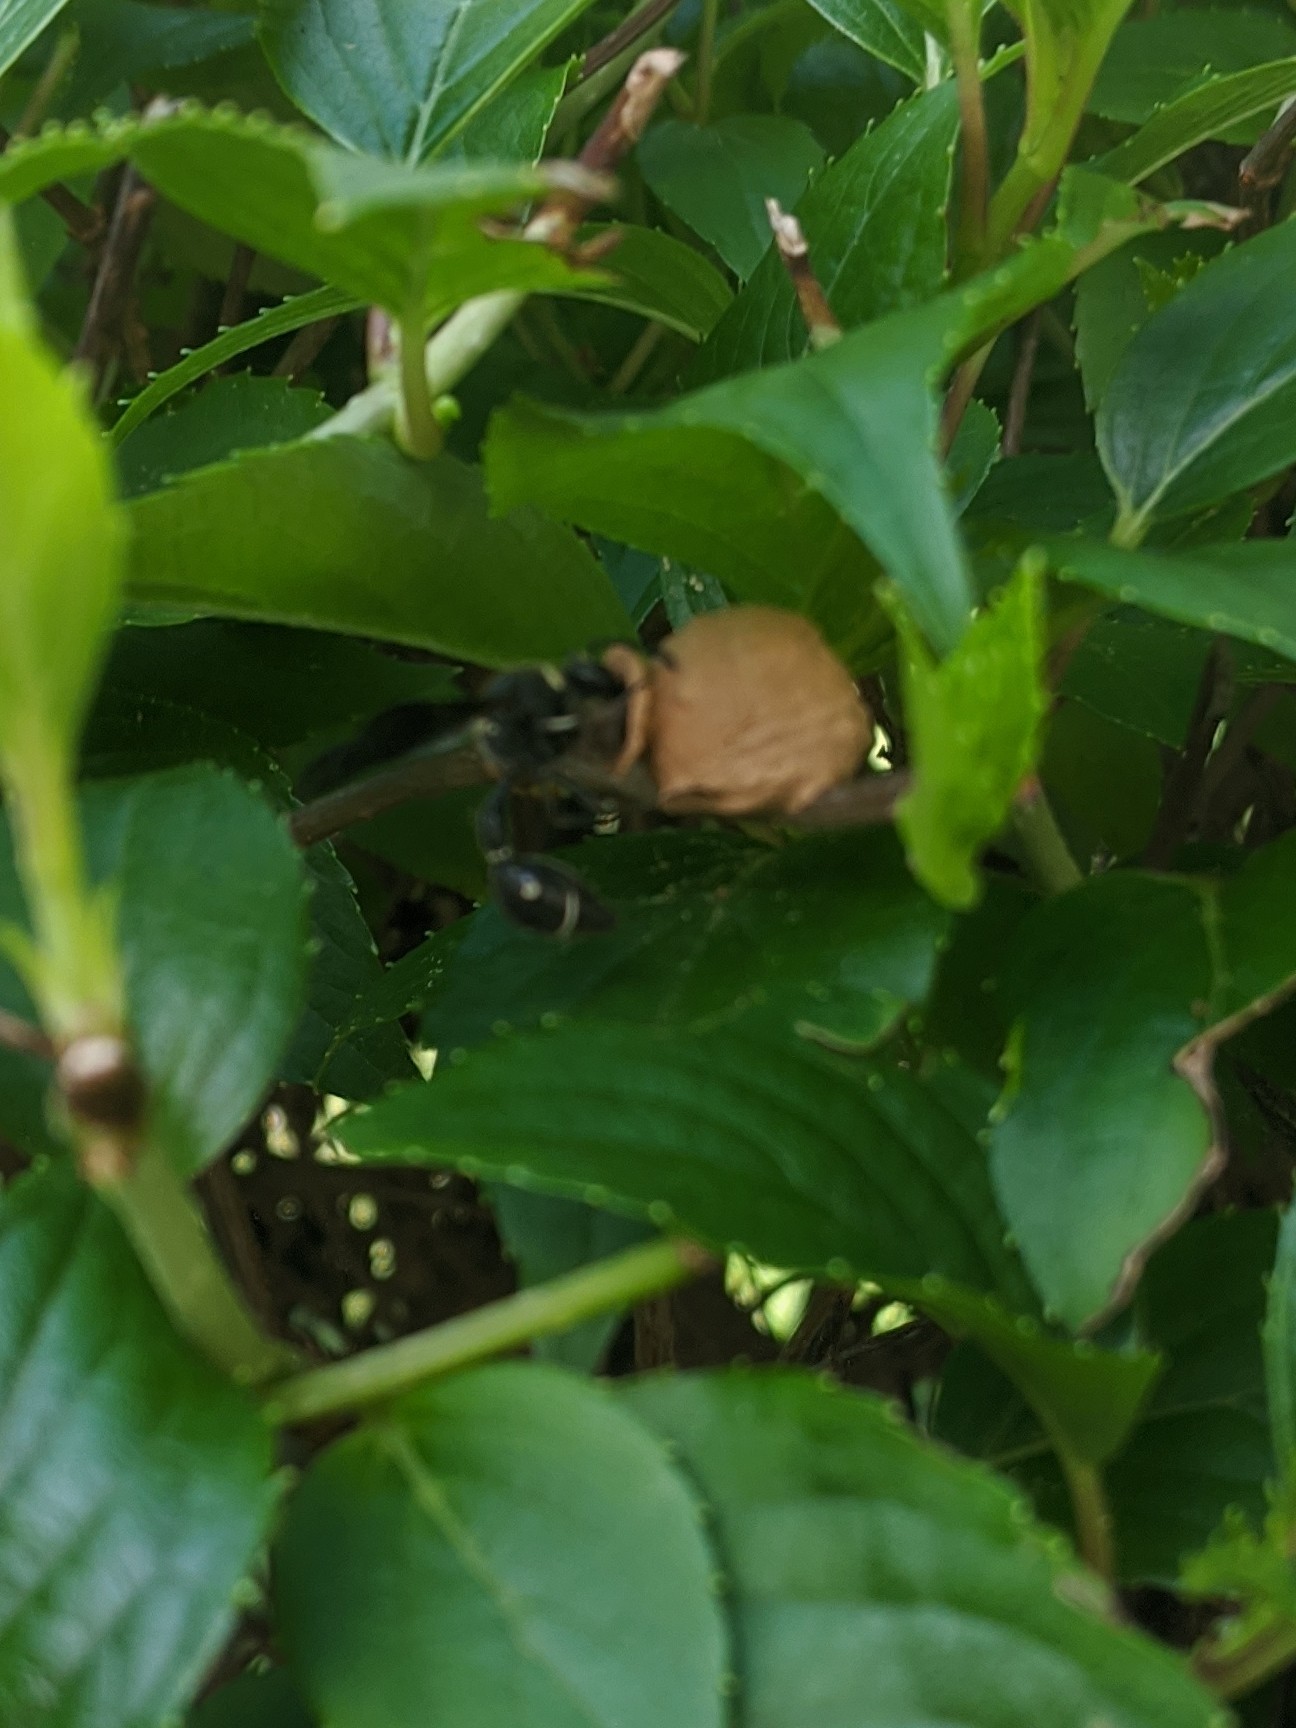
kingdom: Animalia
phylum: Arthropoda
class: Insecta
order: Hymenoptera
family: Vespidae
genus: Eumenes
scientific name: Eumenes fraternus
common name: Fraternal potter wasp
